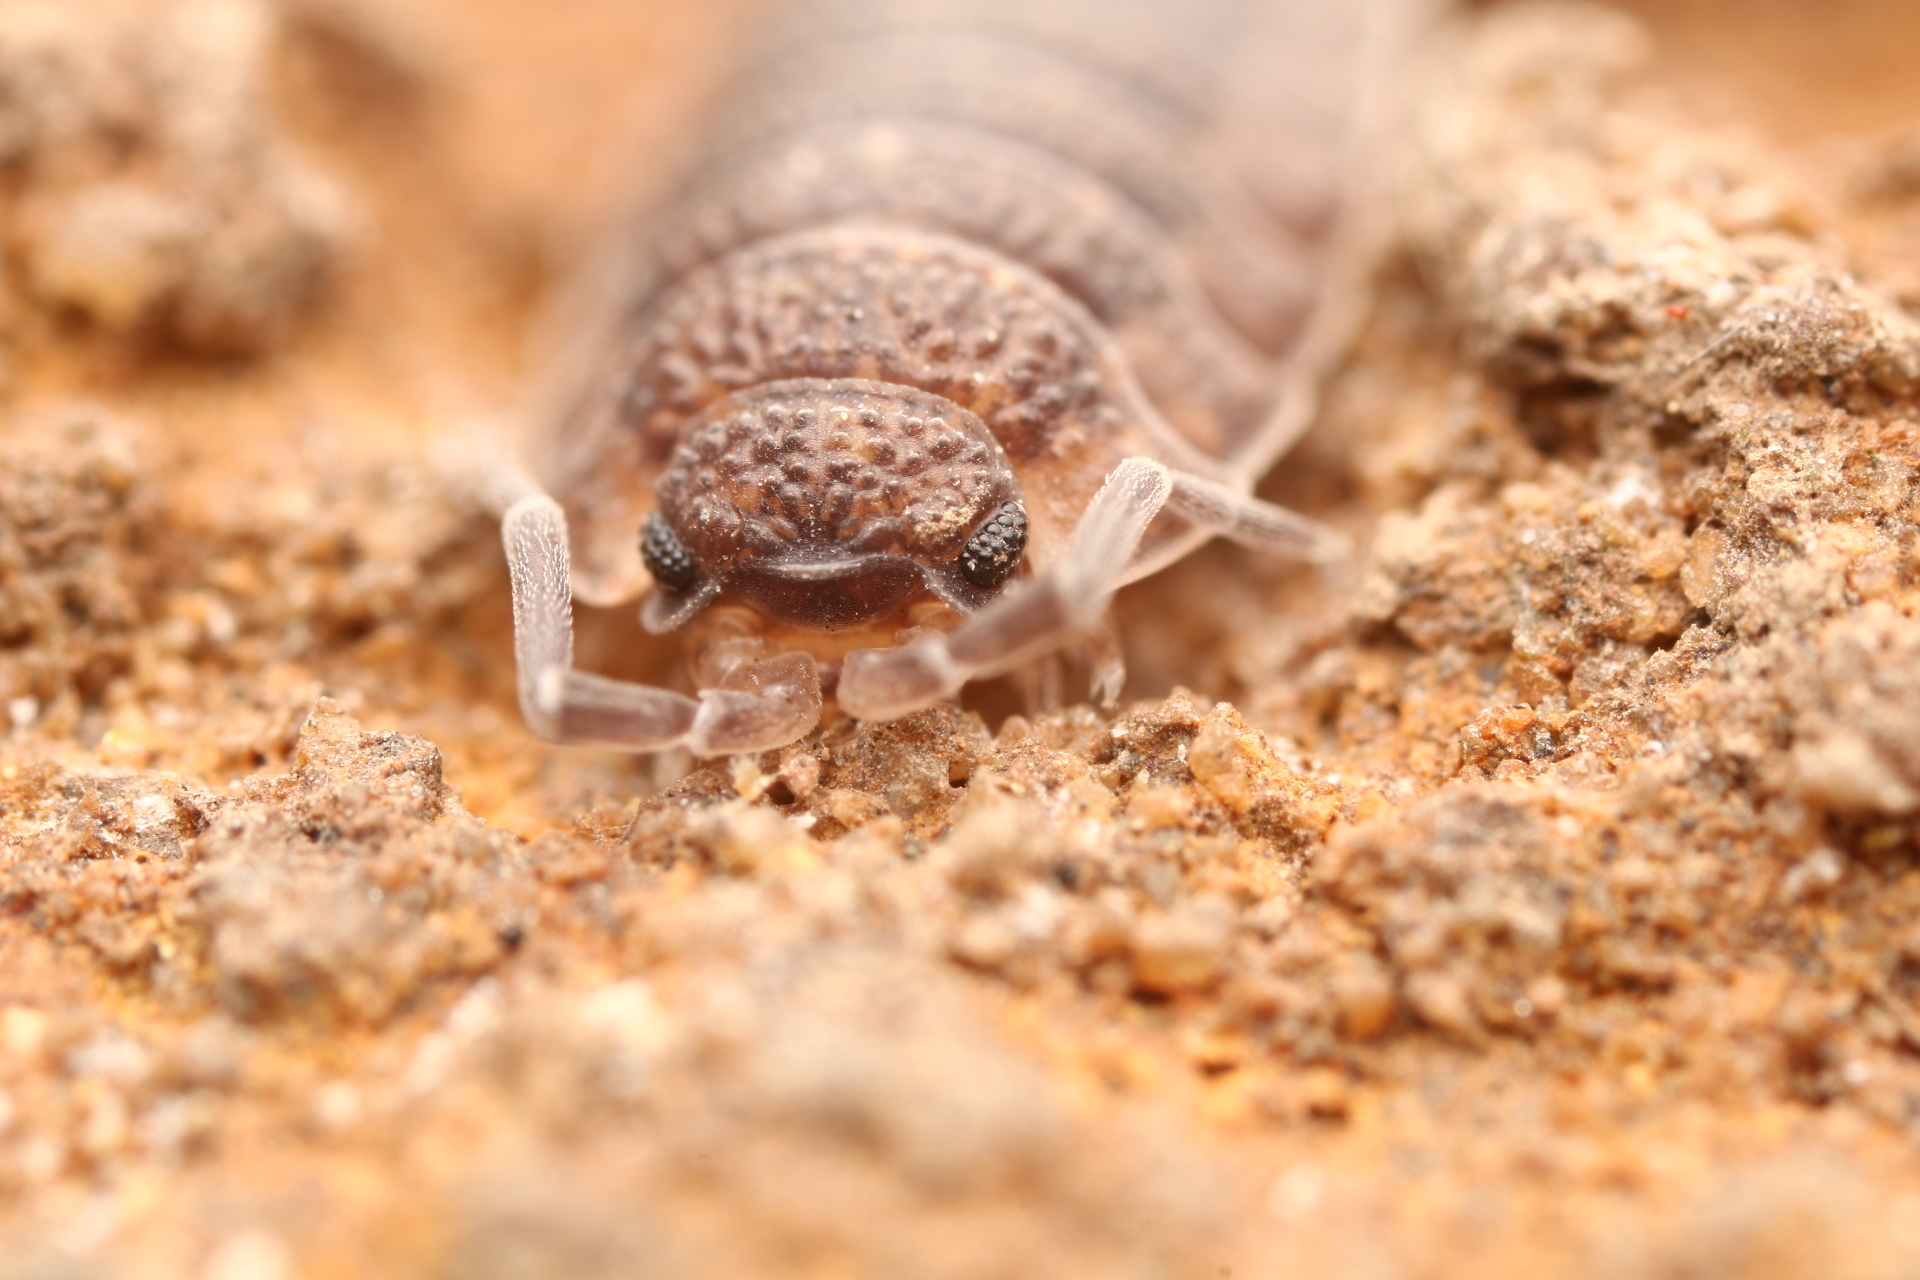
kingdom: Animalia
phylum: Arthropoda
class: Malacostraca
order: Isopoda
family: Porcellionidae
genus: Porcellio
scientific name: Porcellio scaber
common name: Common rough woodlouse
